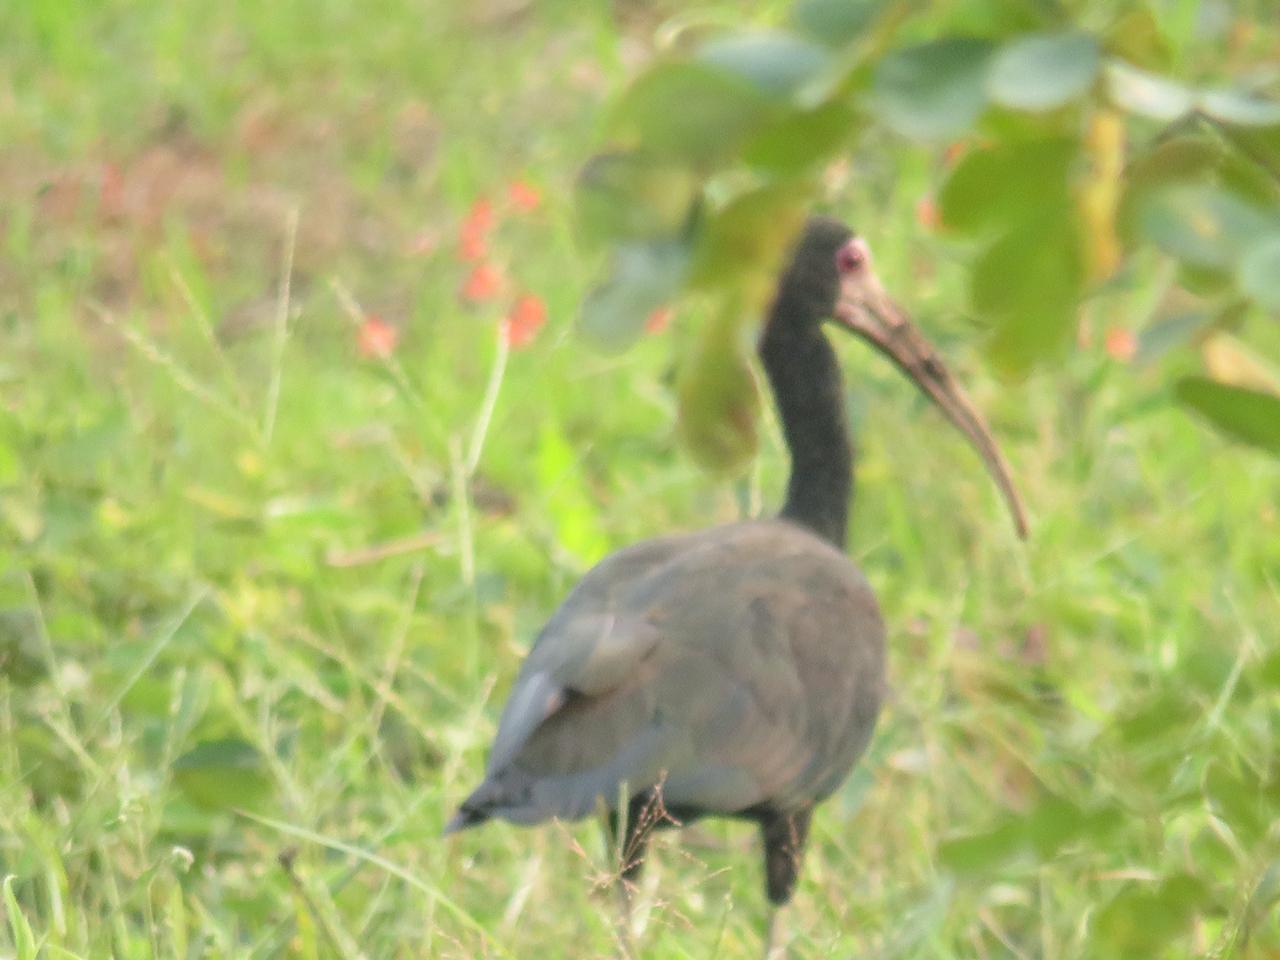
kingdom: Animalia
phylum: Chordata
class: Aves
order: Pelecaniformes
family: Threskiornithidae
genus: Phimosus
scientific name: Phimosus infuscatus
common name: Bare-faced ibis
